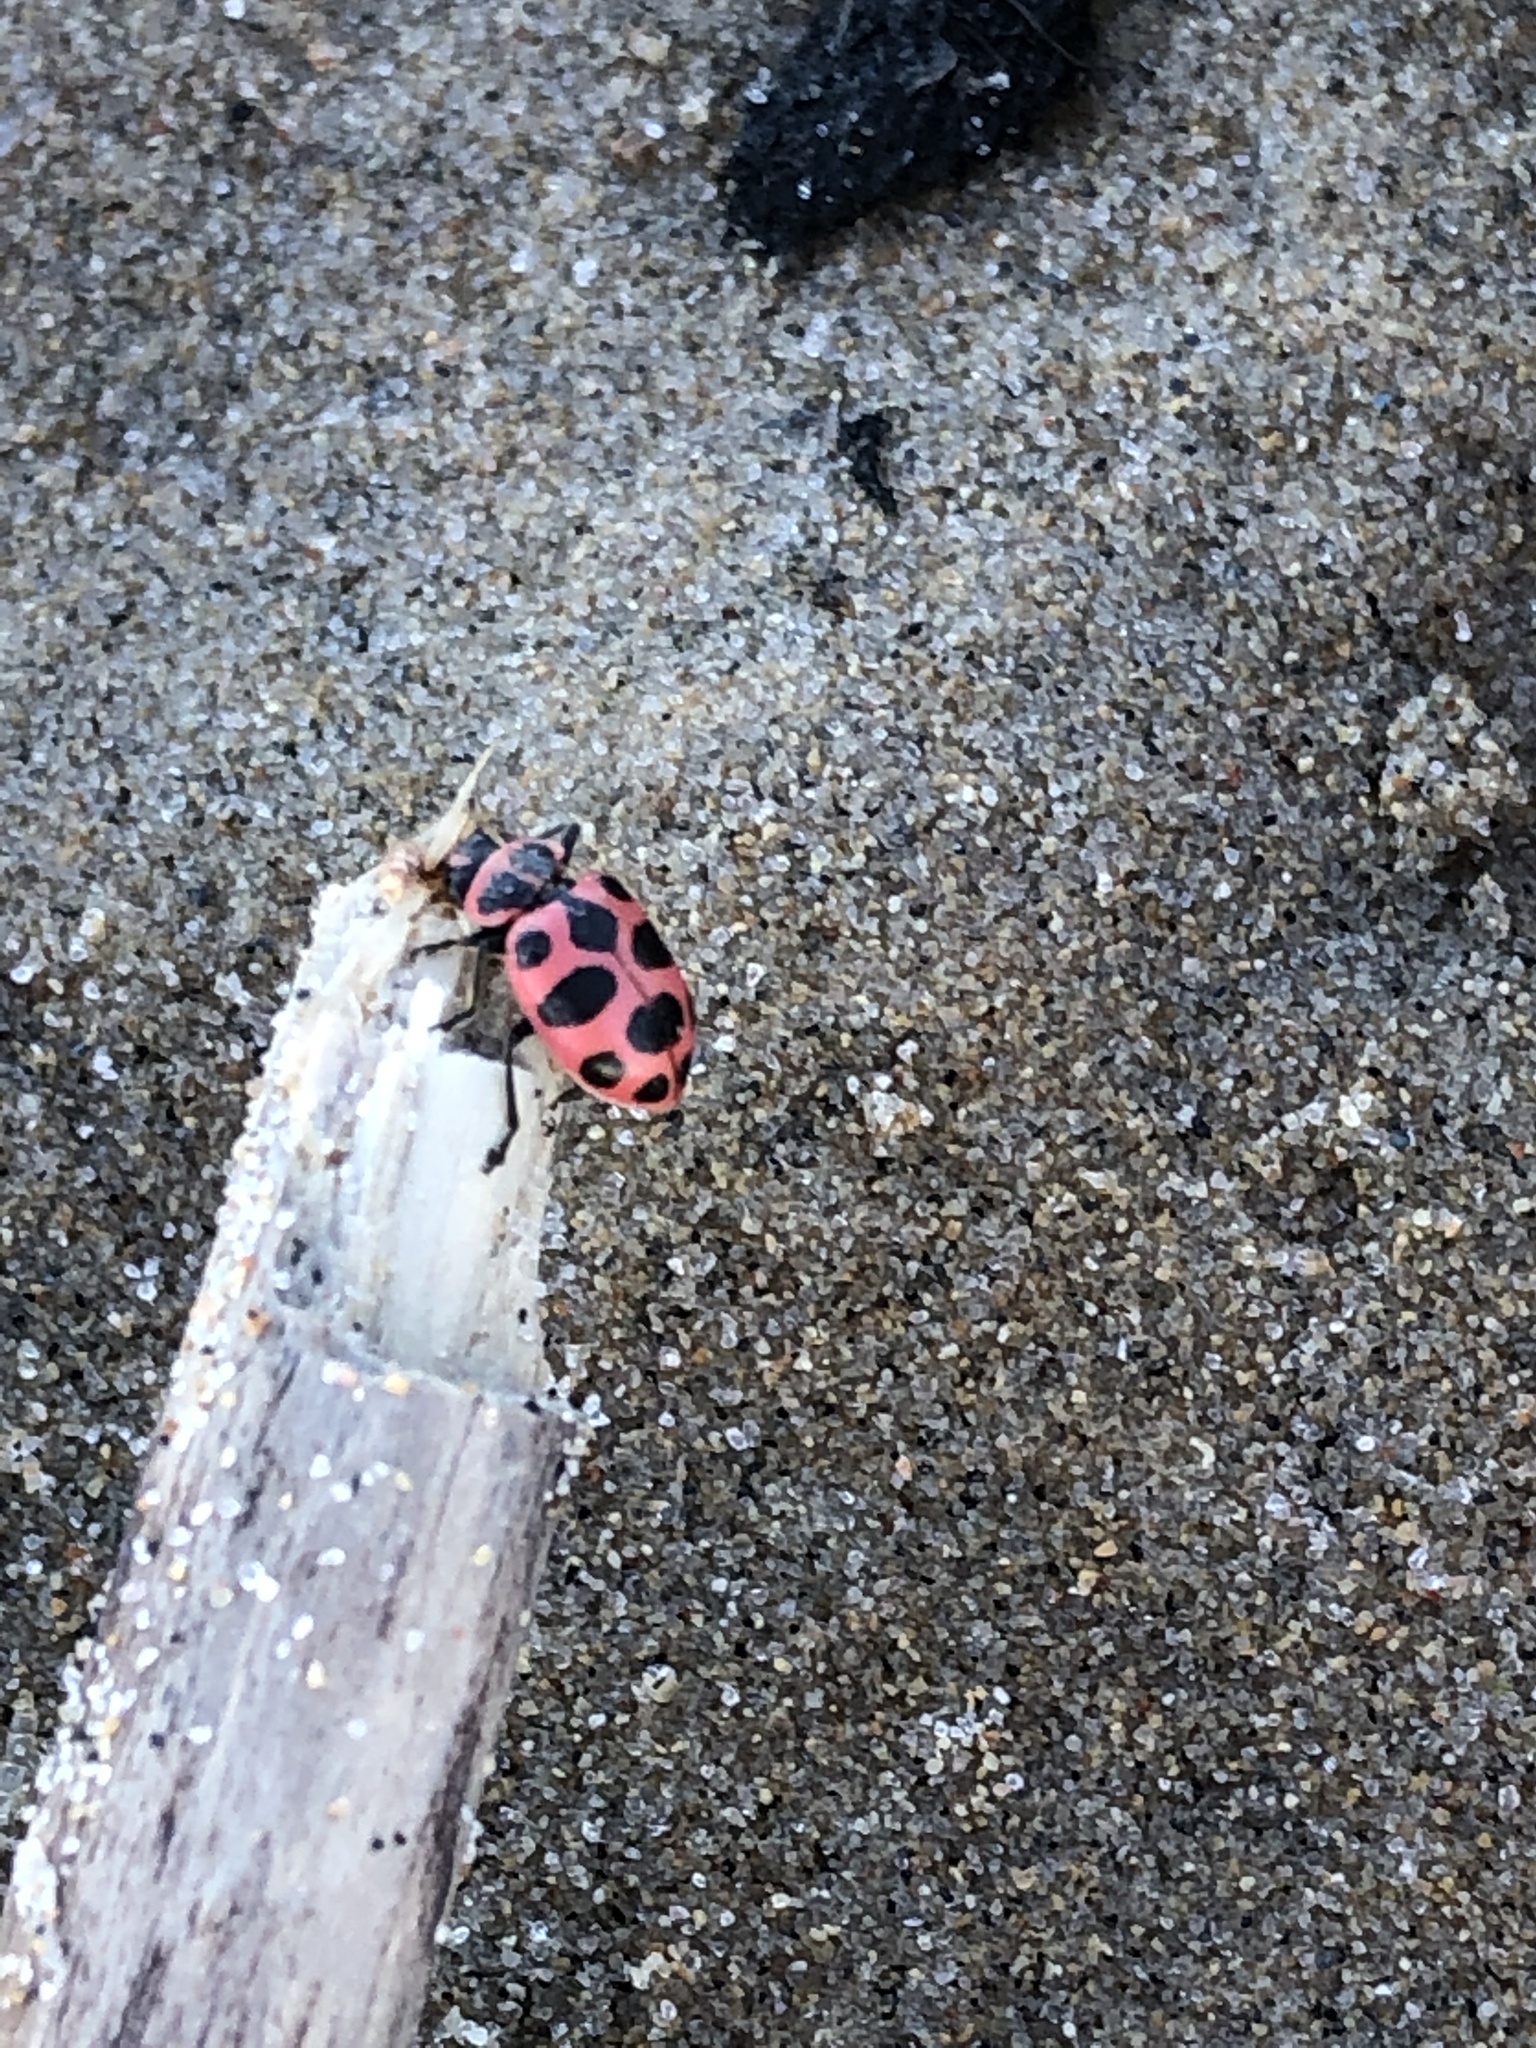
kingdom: Animalia
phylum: Arthropoda
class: Insecta
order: Coleoptera
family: Coccinellidae
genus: Coleomegilla
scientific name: Coleomegilla maculata
